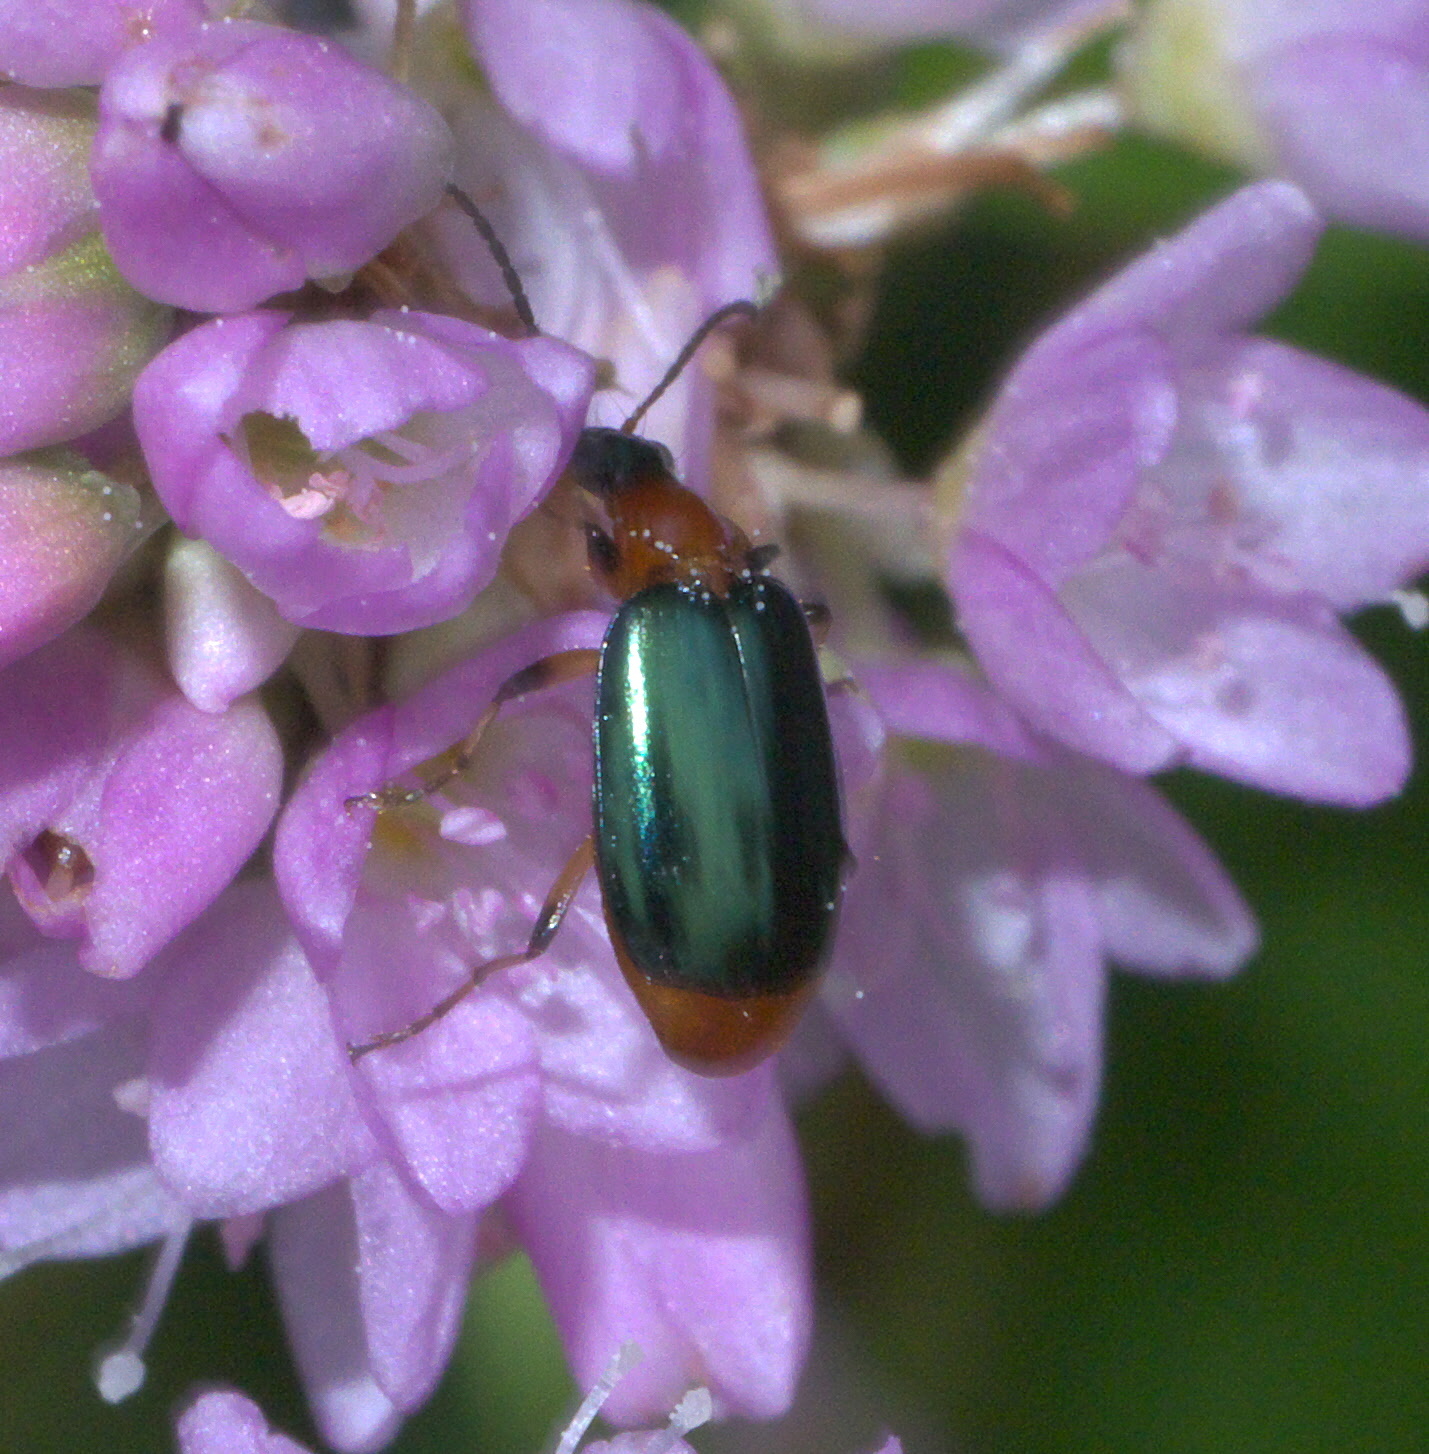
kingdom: Animalia
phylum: Arthropoda
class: Insecta
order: Coleoptera
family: Carabidae
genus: Lebia
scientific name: Lebia viridipennis
